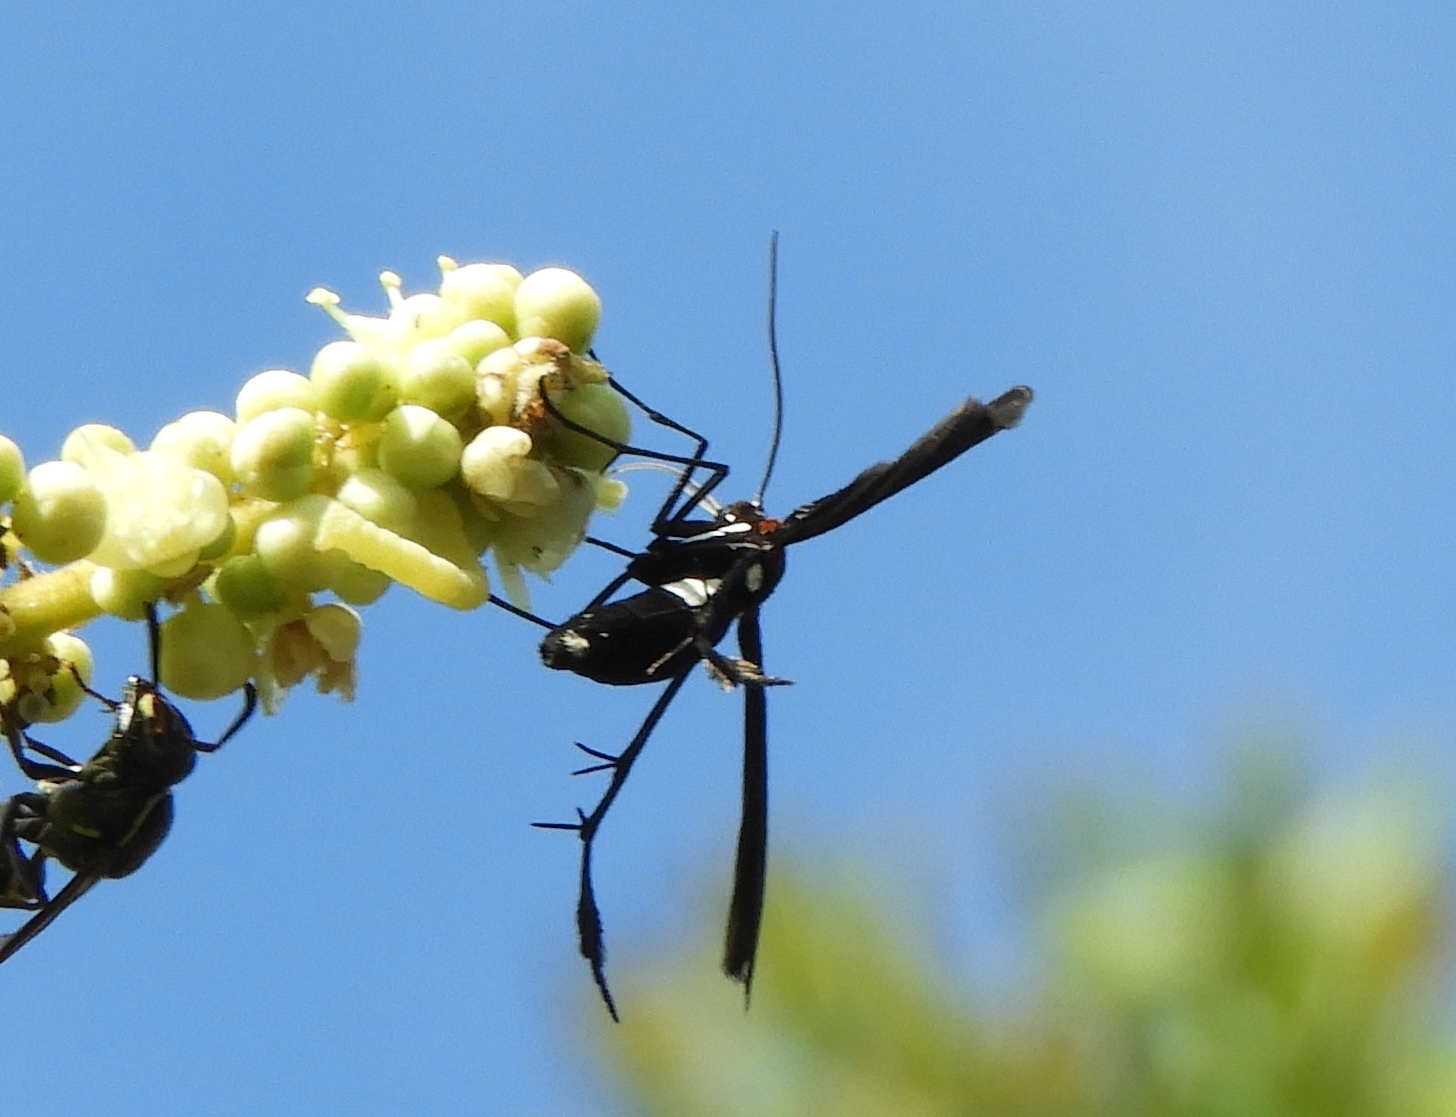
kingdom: Animalia
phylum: Arthropoda
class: Insecta
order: Lepidoptera
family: Pterophoridae
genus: Hellinsia
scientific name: Hellinsia chamelai
